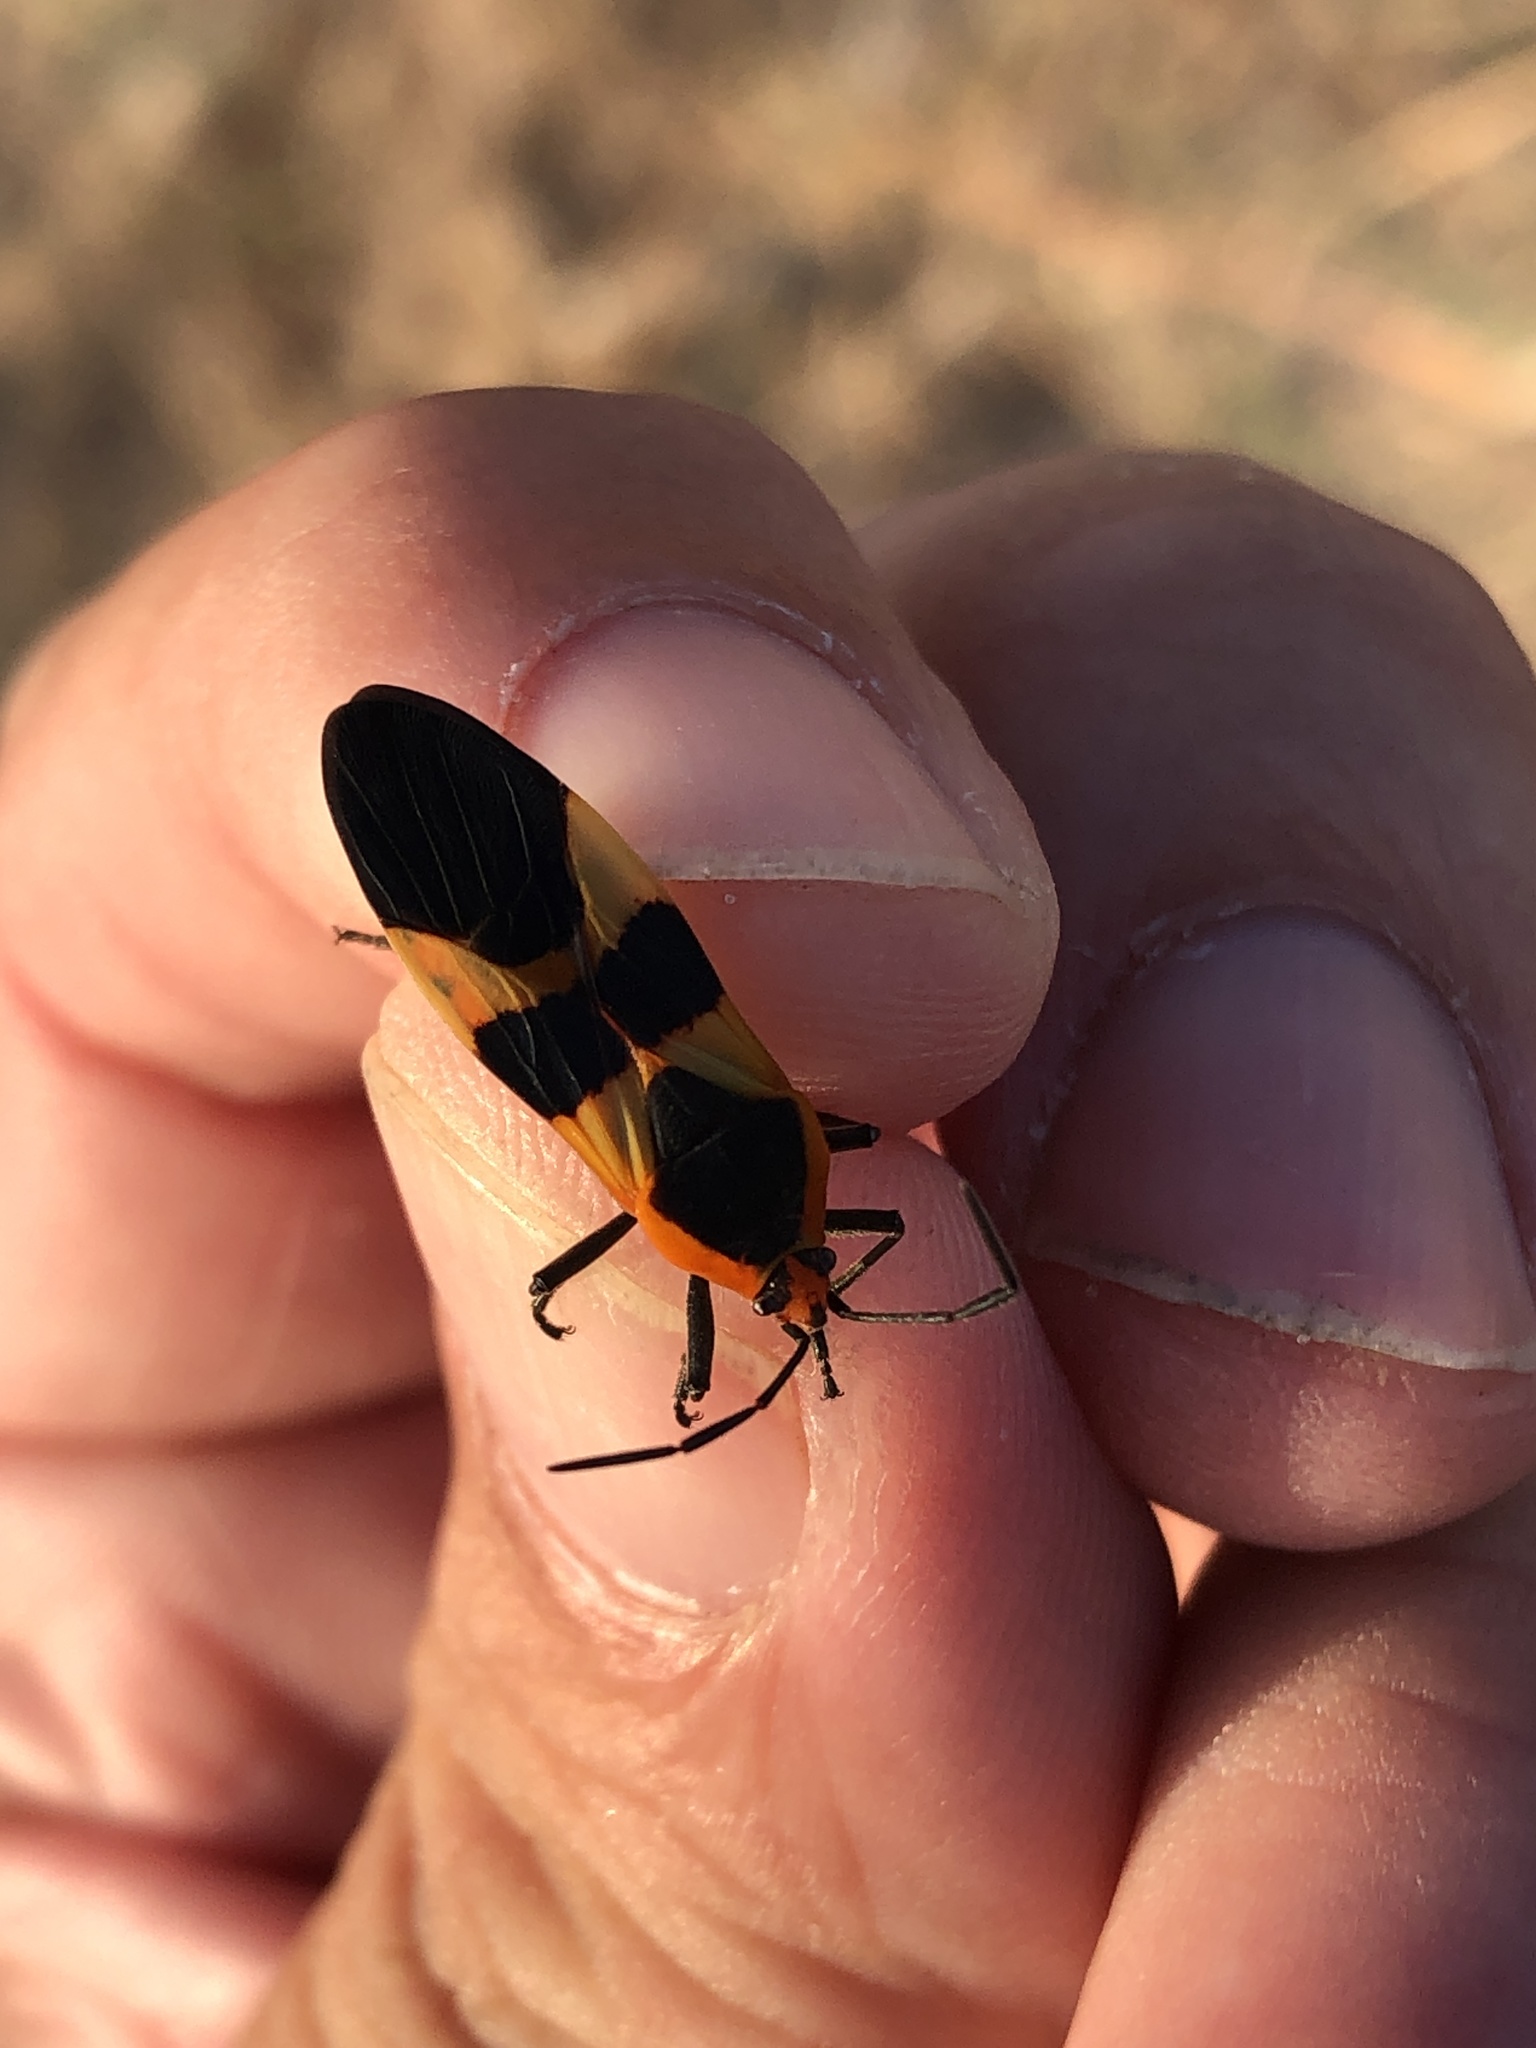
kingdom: Animalia
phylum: Arthropoda
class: Insecta
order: Hemiptera
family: Lygaeidae
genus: Oncopeltus
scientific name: Oncopeltus fasciatus
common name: Large milkweed bug
